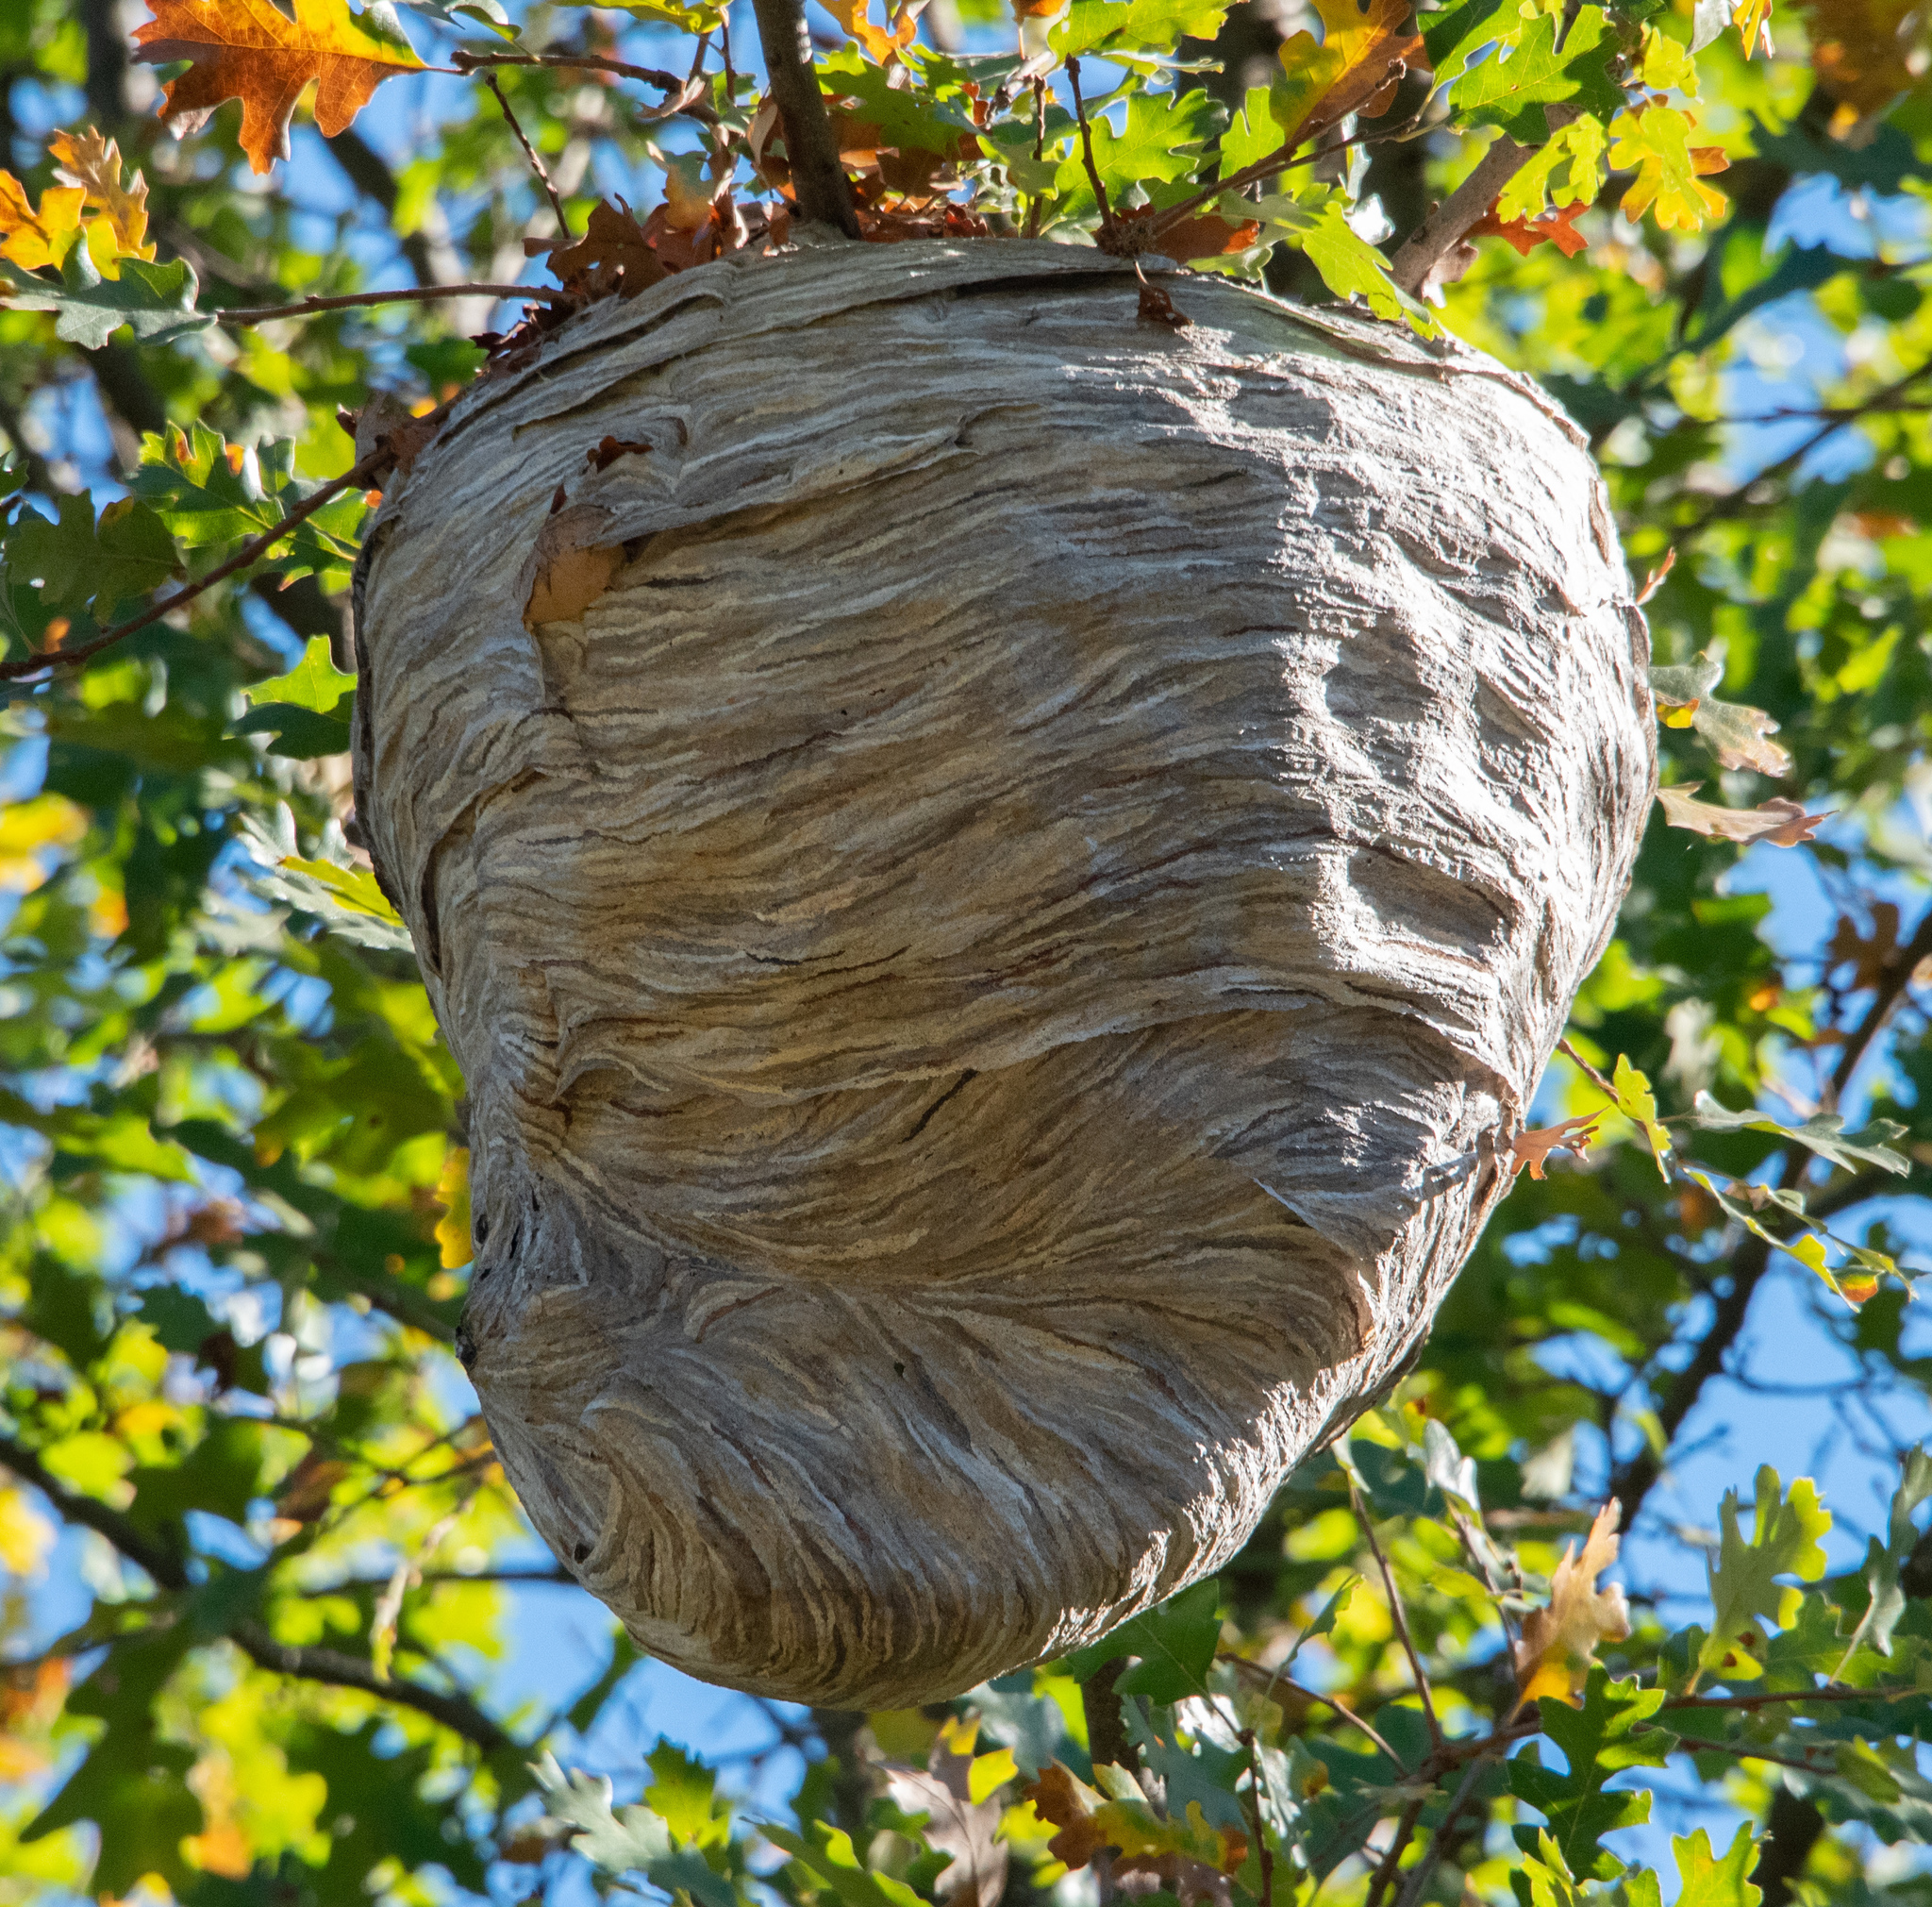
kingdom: Animalia
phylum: Arthropoda
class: Insecta
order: Hymenoptera
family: Vespidae
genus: Dolichovespula
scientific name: Dolichovespula
